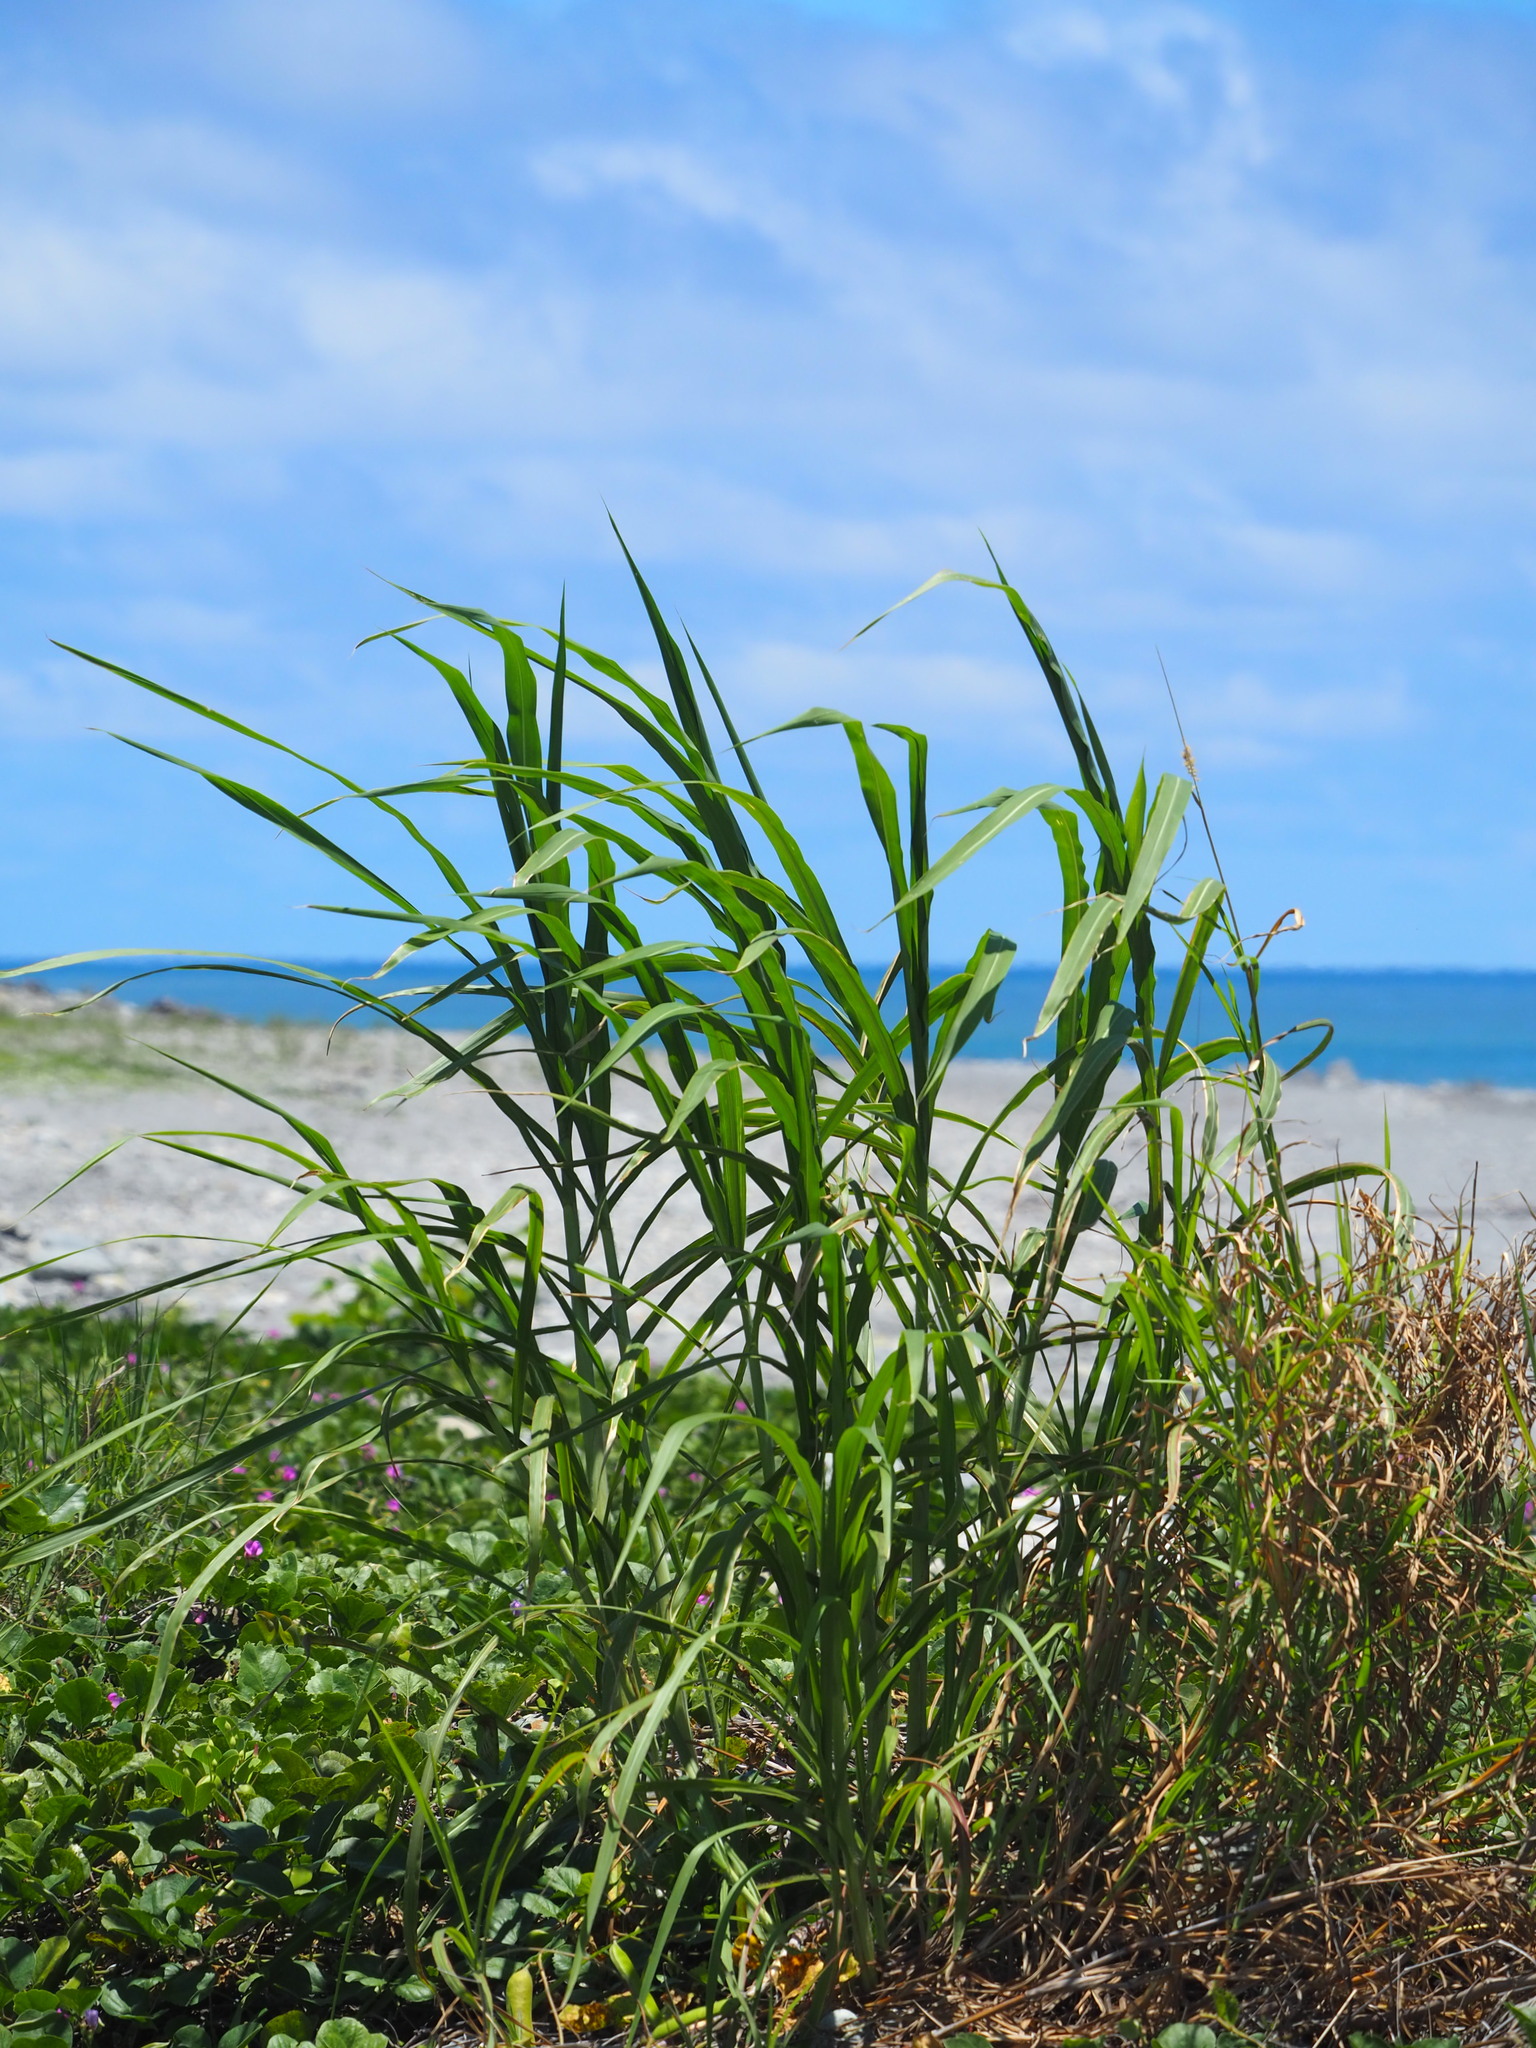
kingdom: Plantae
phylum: Tracheophyta
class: Liliopsida
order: Poales
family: Poaceae
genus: Cenchrus
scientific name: Cenchrus purpureus
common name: Elephant grass
